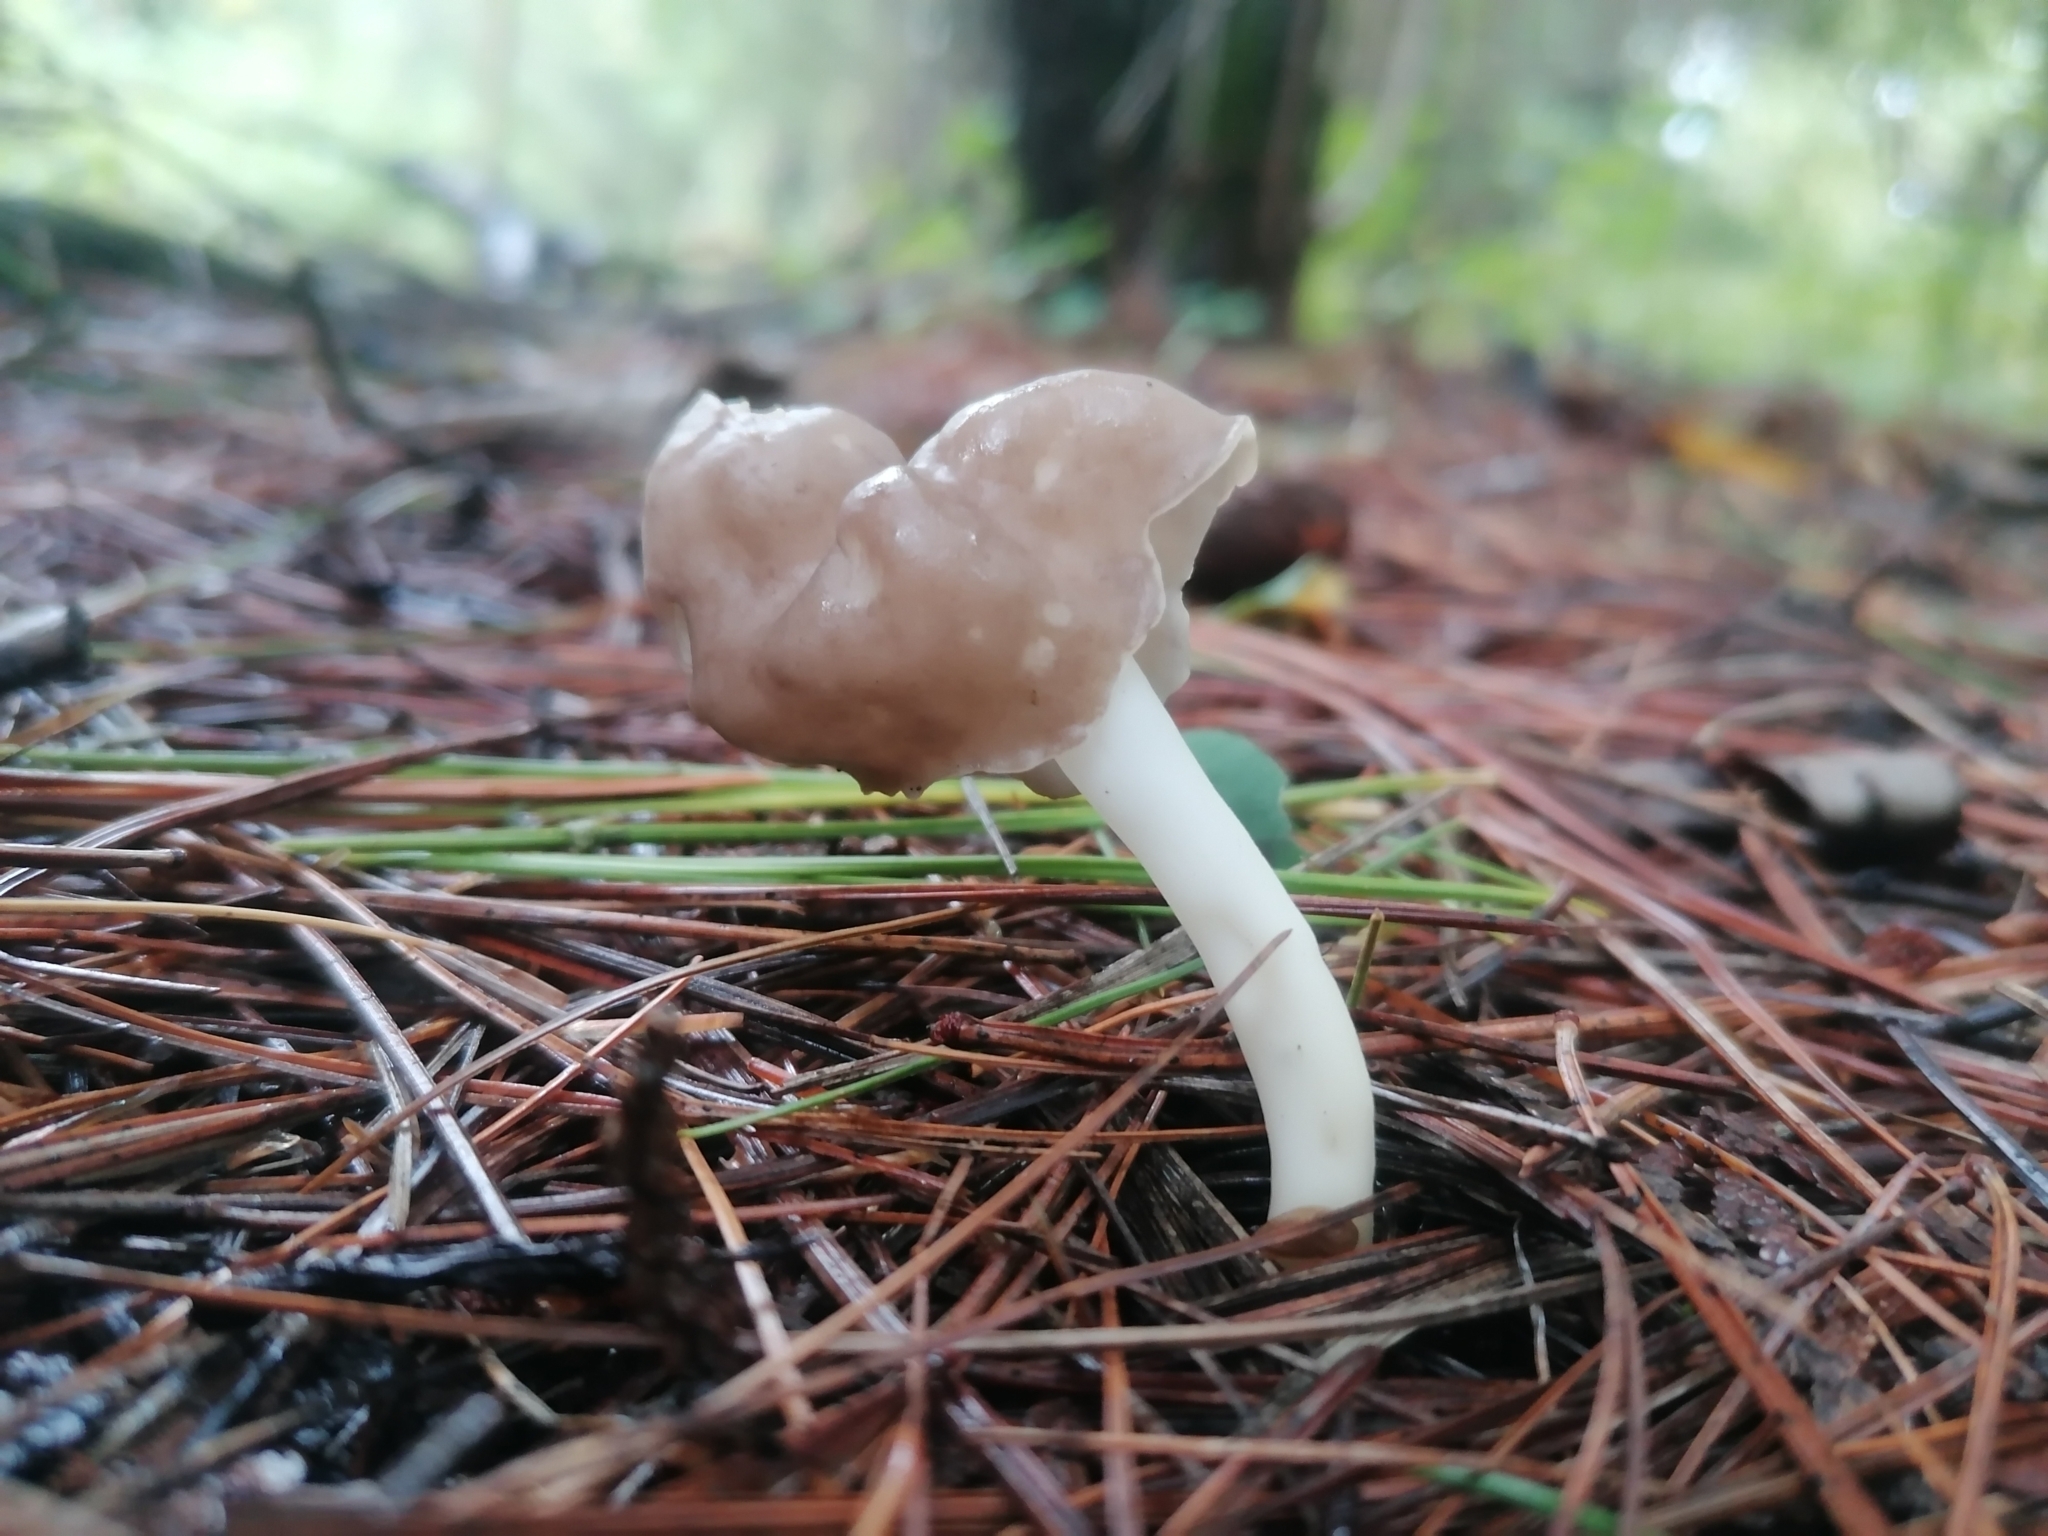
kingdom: Fungi
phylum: Ascomycota
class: Pezizomycetes
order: Pezizales
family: Helvellaceae
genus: Helvella
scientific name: Helvella elastica
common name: Elastic saddle
